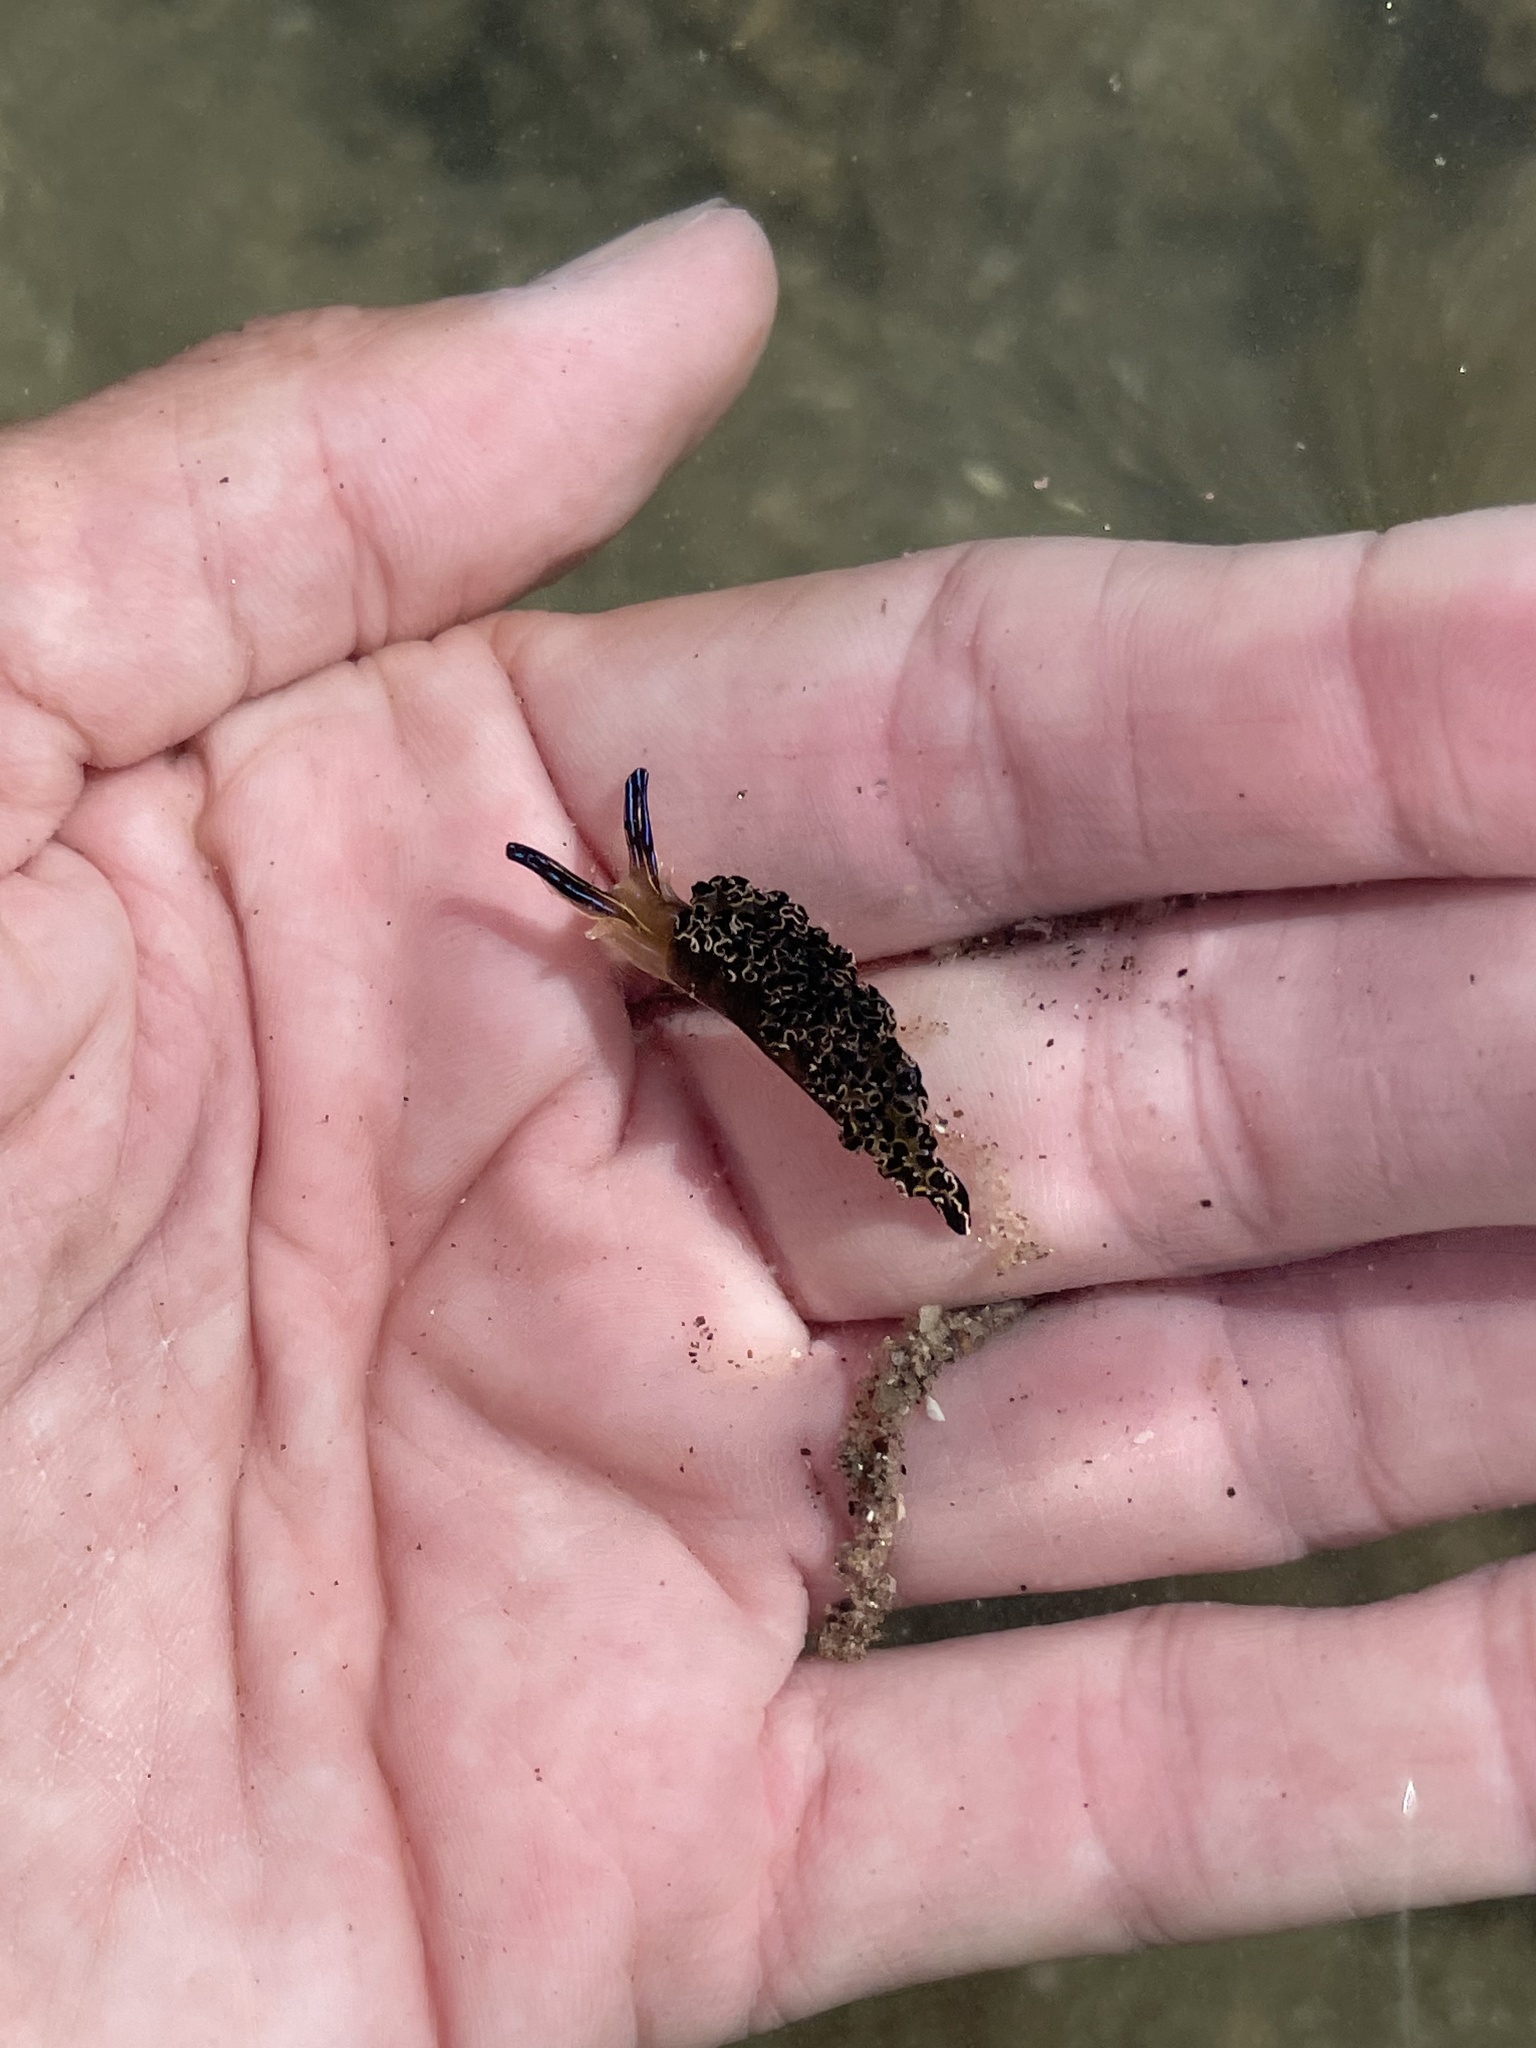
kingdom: Animalia
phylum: Mollusca
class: Gastropoda
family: Plakobranchidae
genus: Elysia
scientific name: Elysia diomedea
